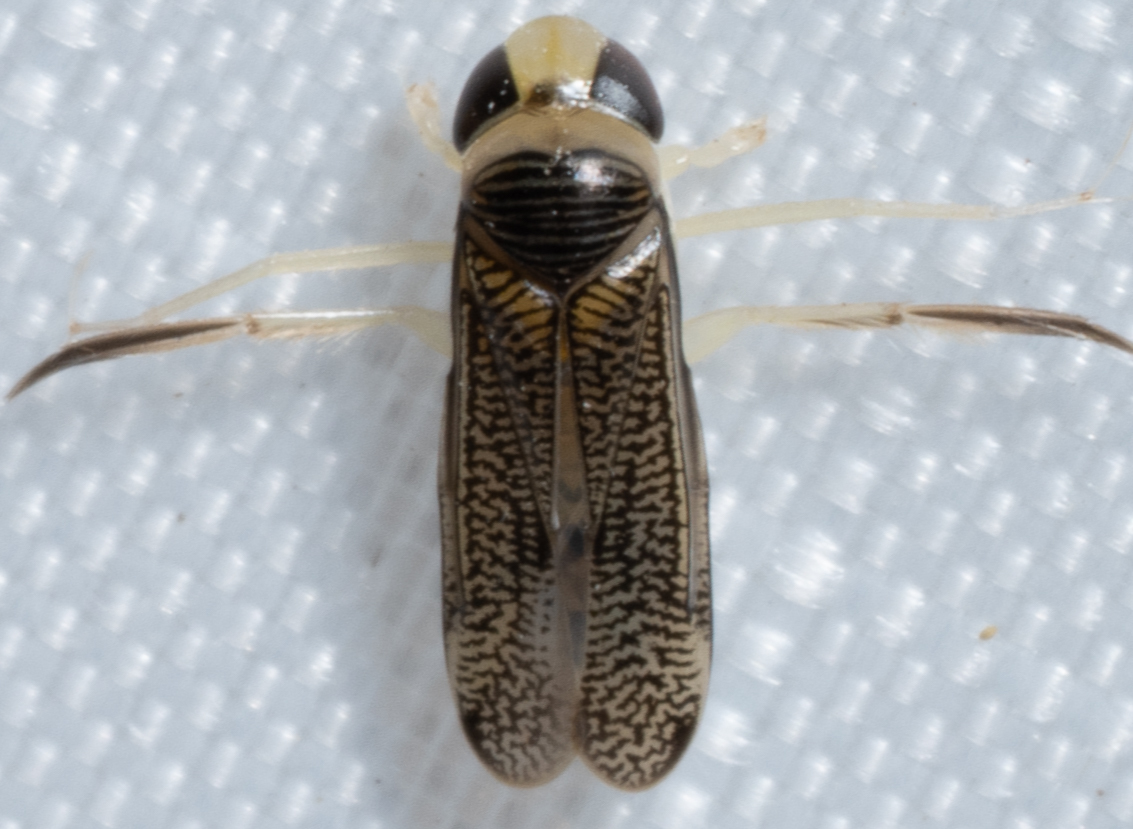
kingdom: Animalia
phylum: Arthropoda
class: Insecta
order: Hemiptera
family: Corixidae
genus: Trichocorixa
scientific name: Trichocorixa
